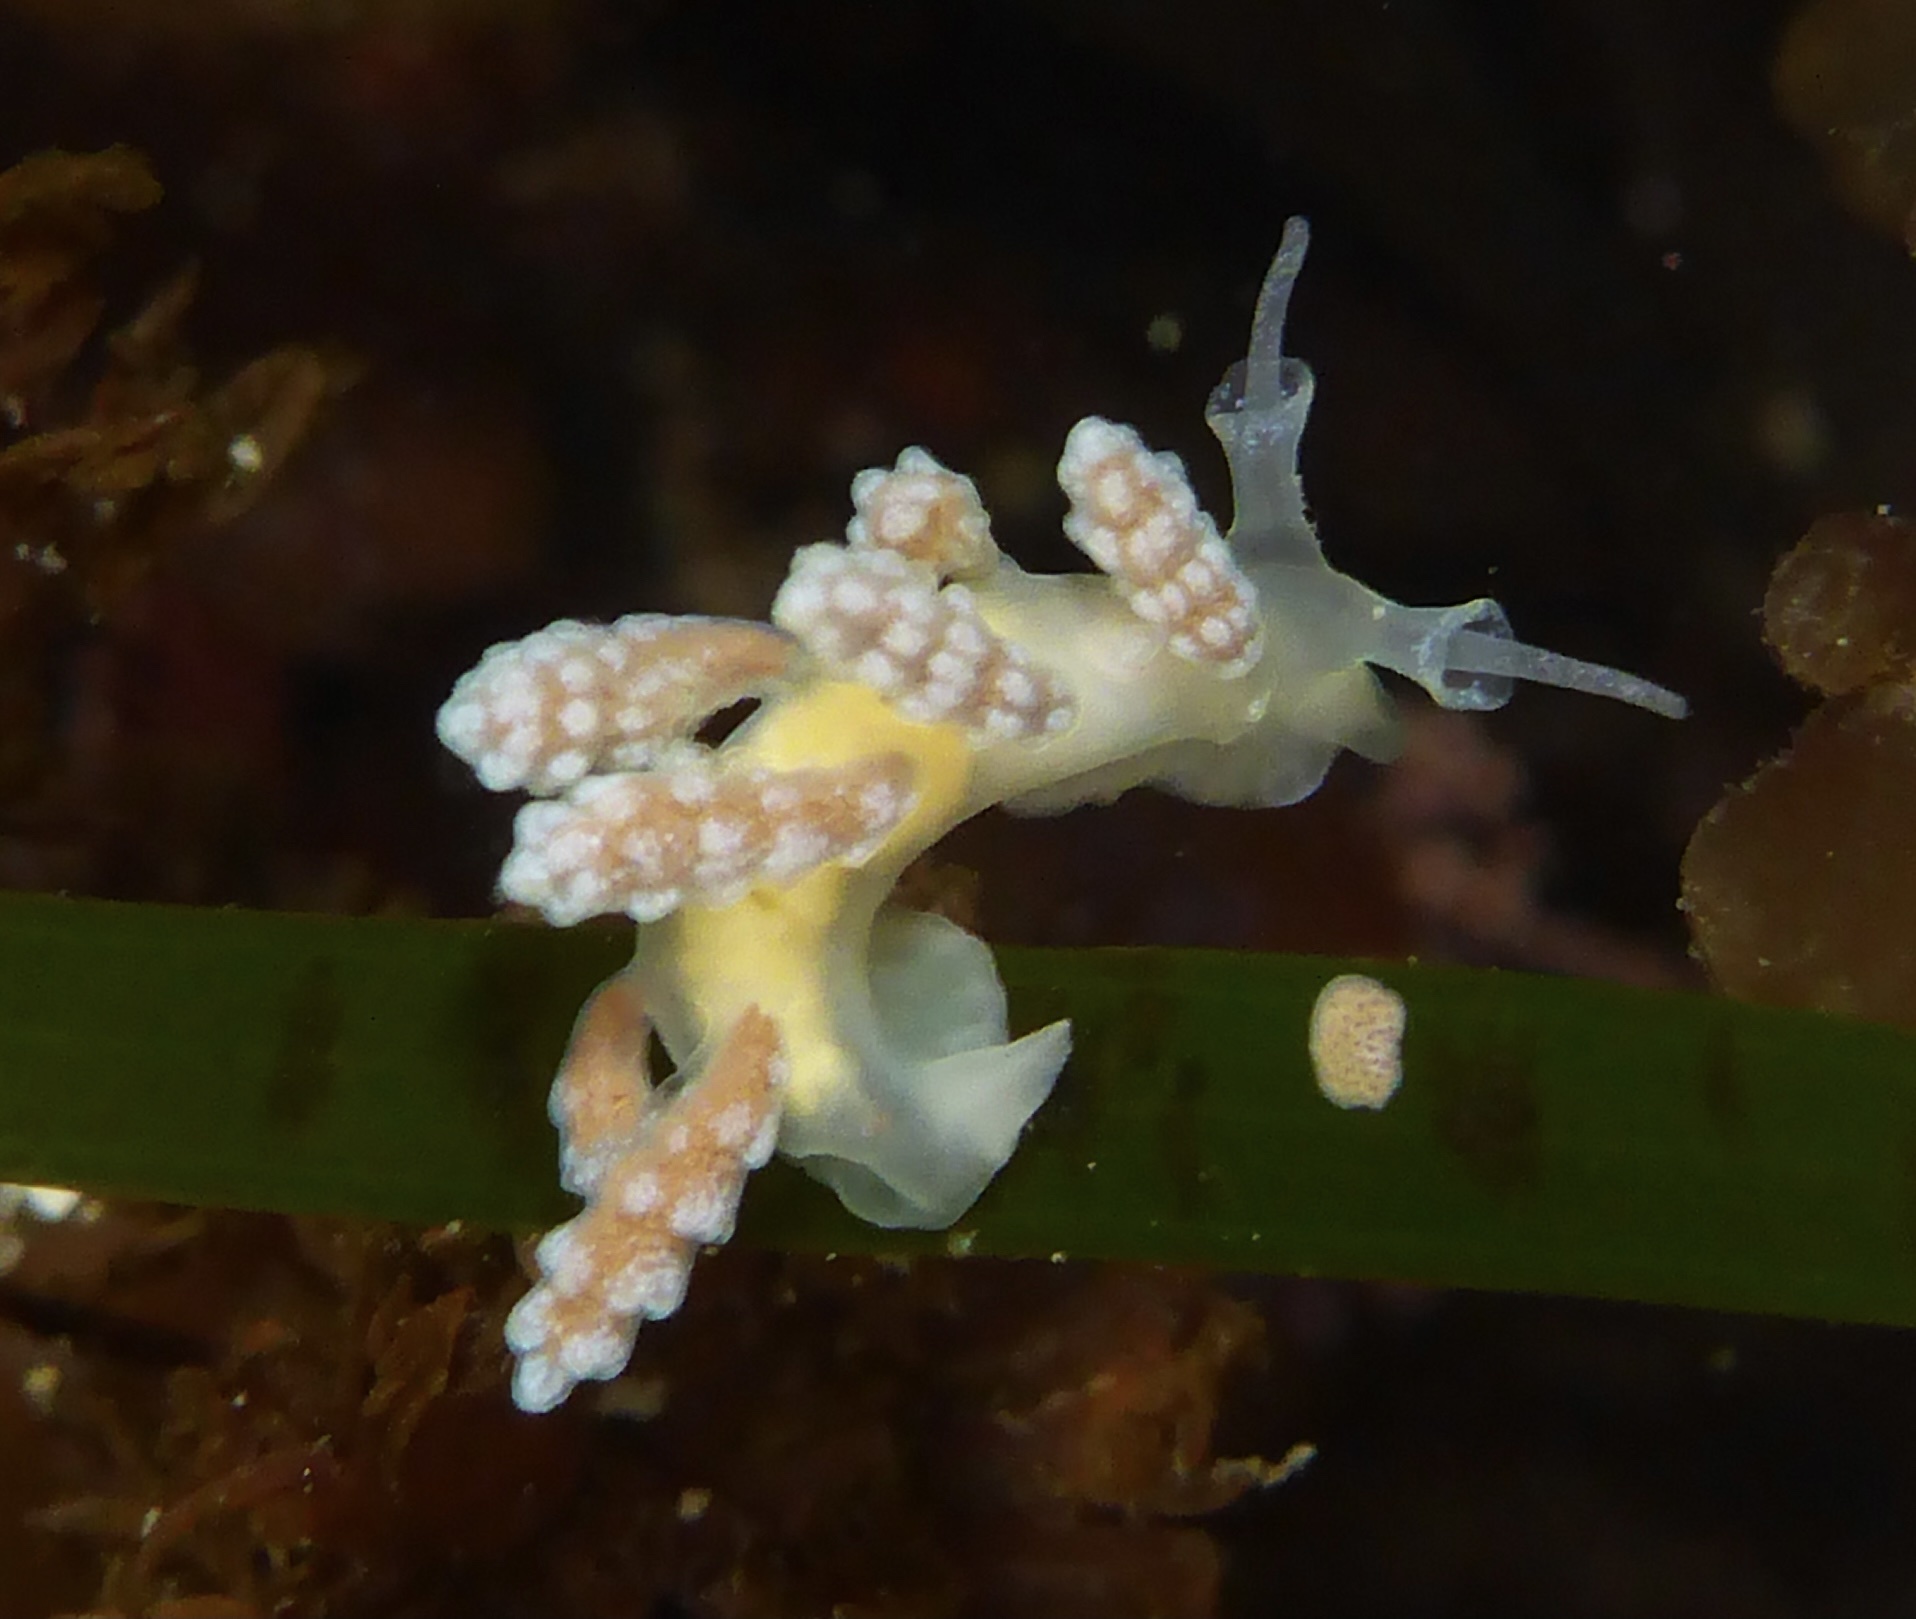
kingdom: Animalia
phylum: Mollusca
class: Gastropoda
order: Nudibranchia
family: Dotidae
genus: Doto
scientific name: Doto amyra
